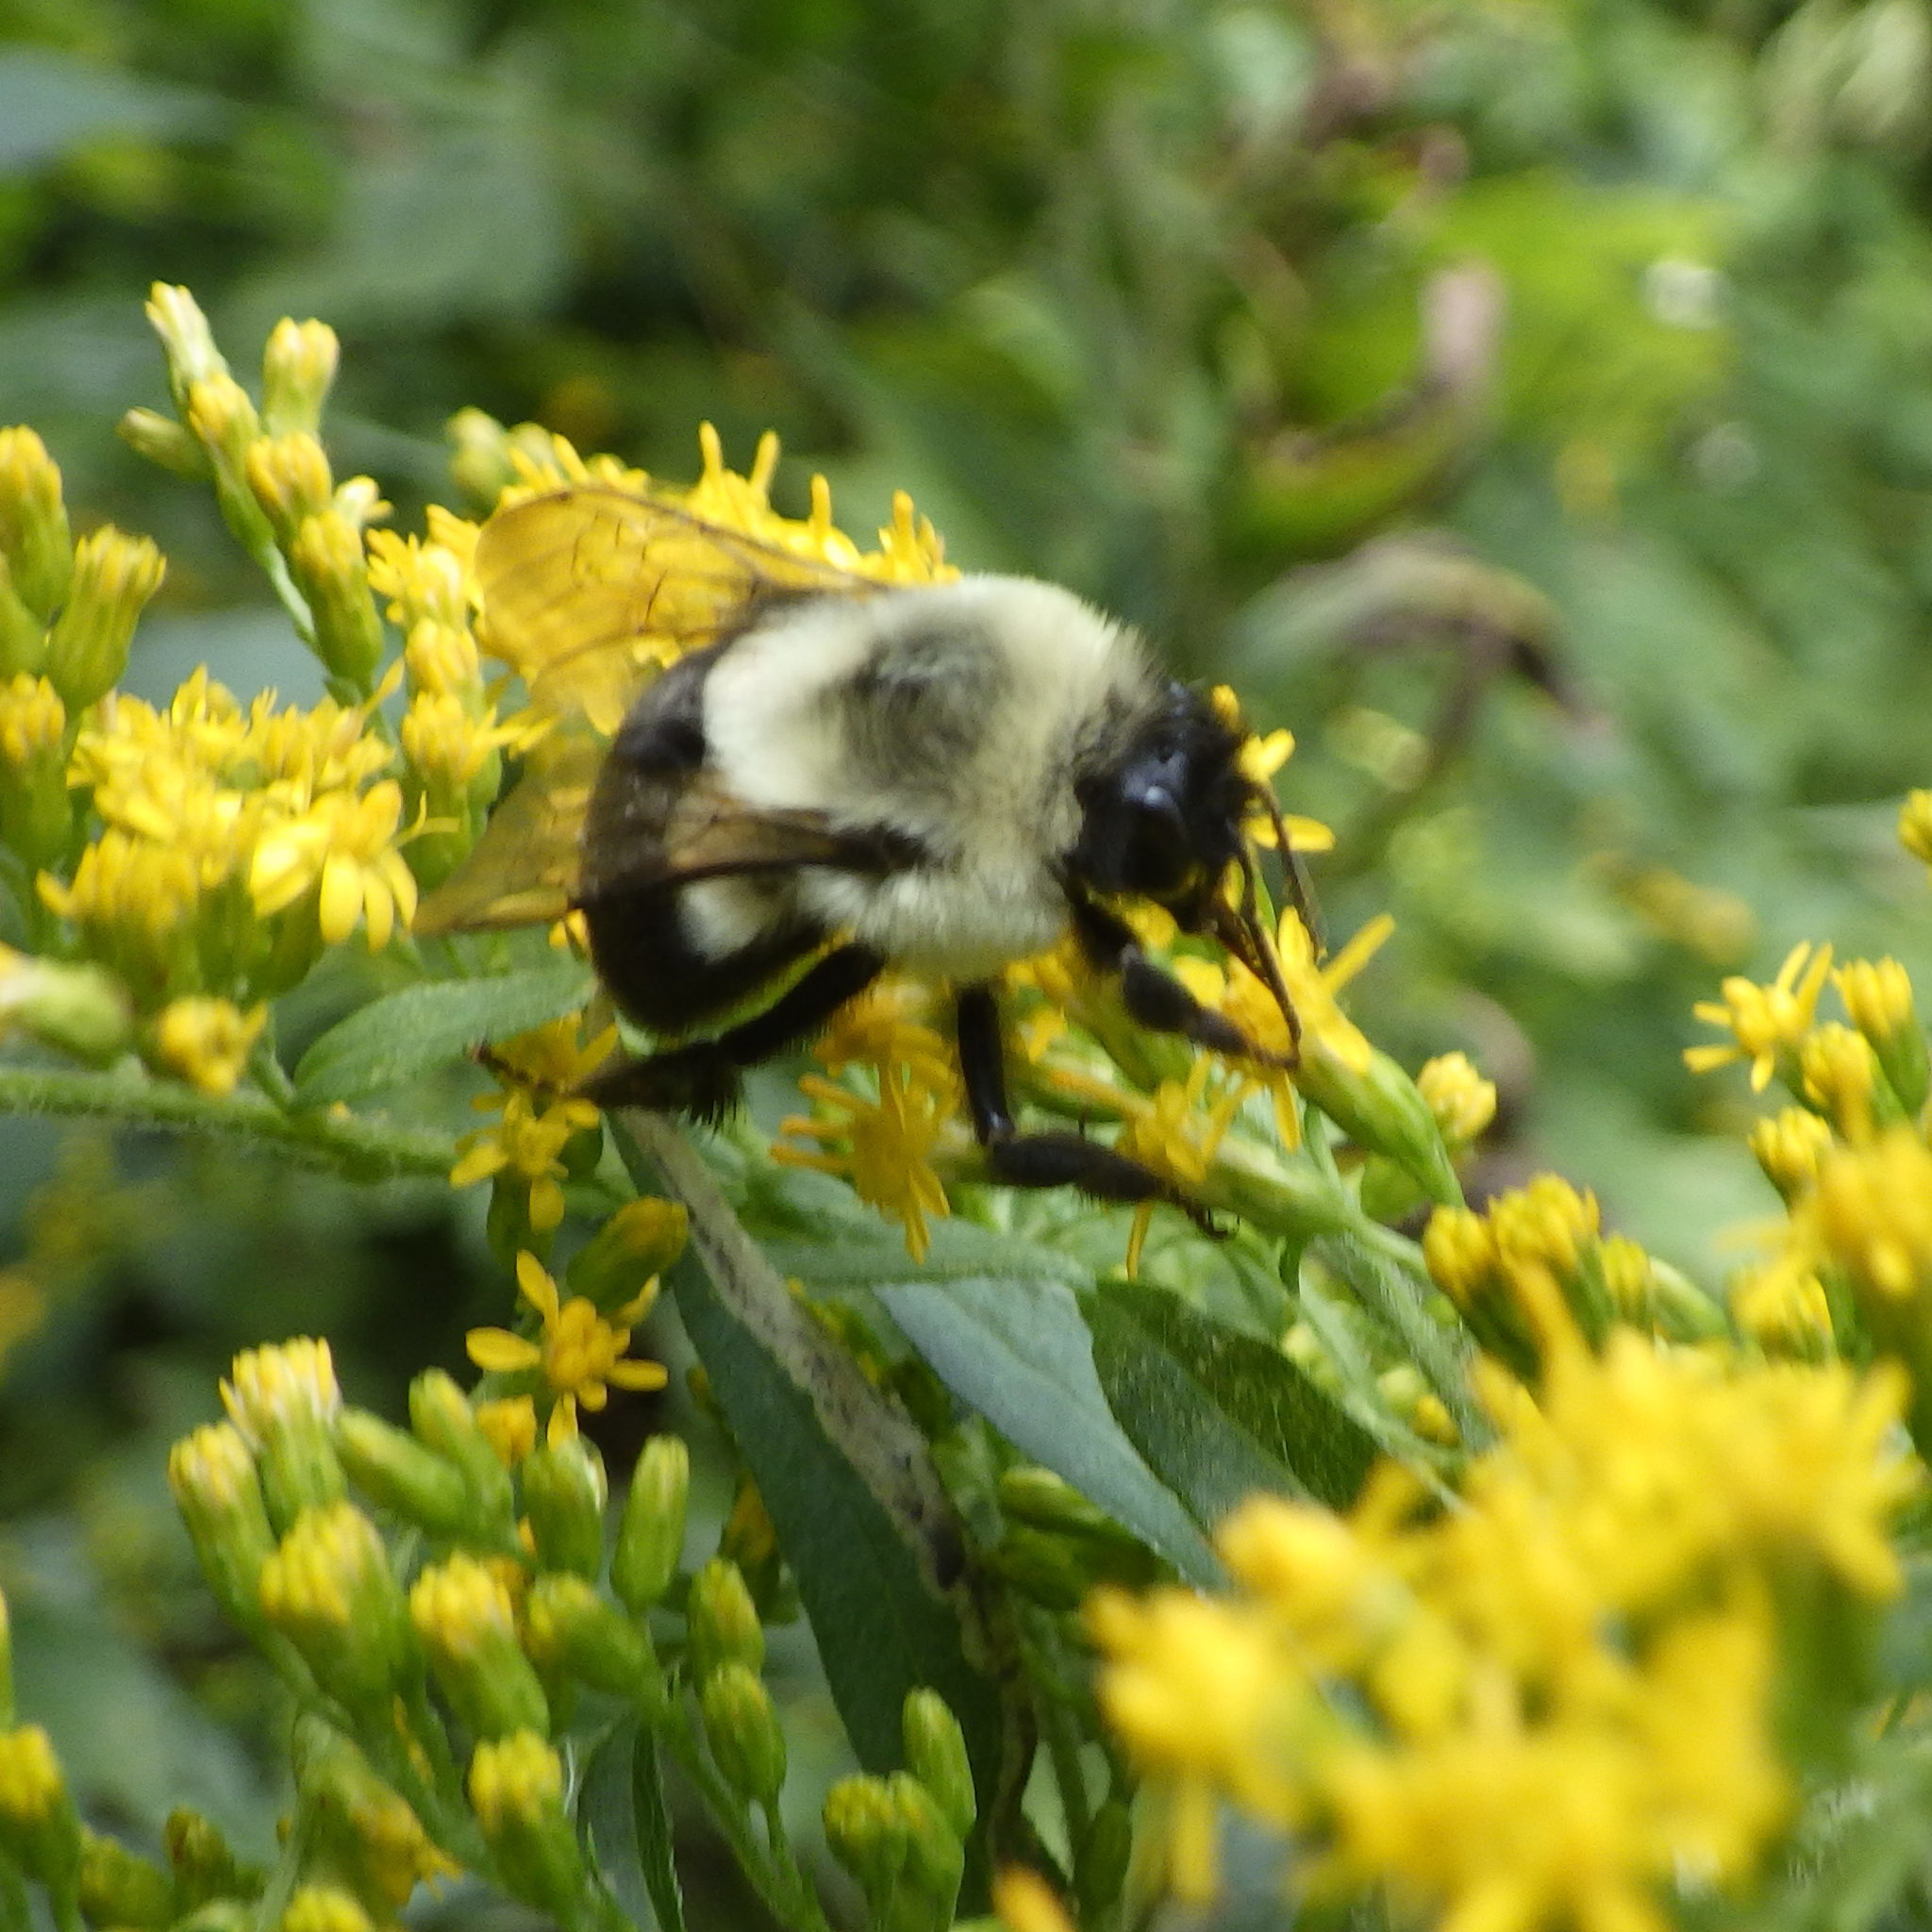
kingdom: Animalia
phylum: Arthropoda
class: Insecta
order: Hymenoptera
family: Apidae
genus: Bombus
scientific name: Bombus impatiens
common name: Common eastern bumble bee
